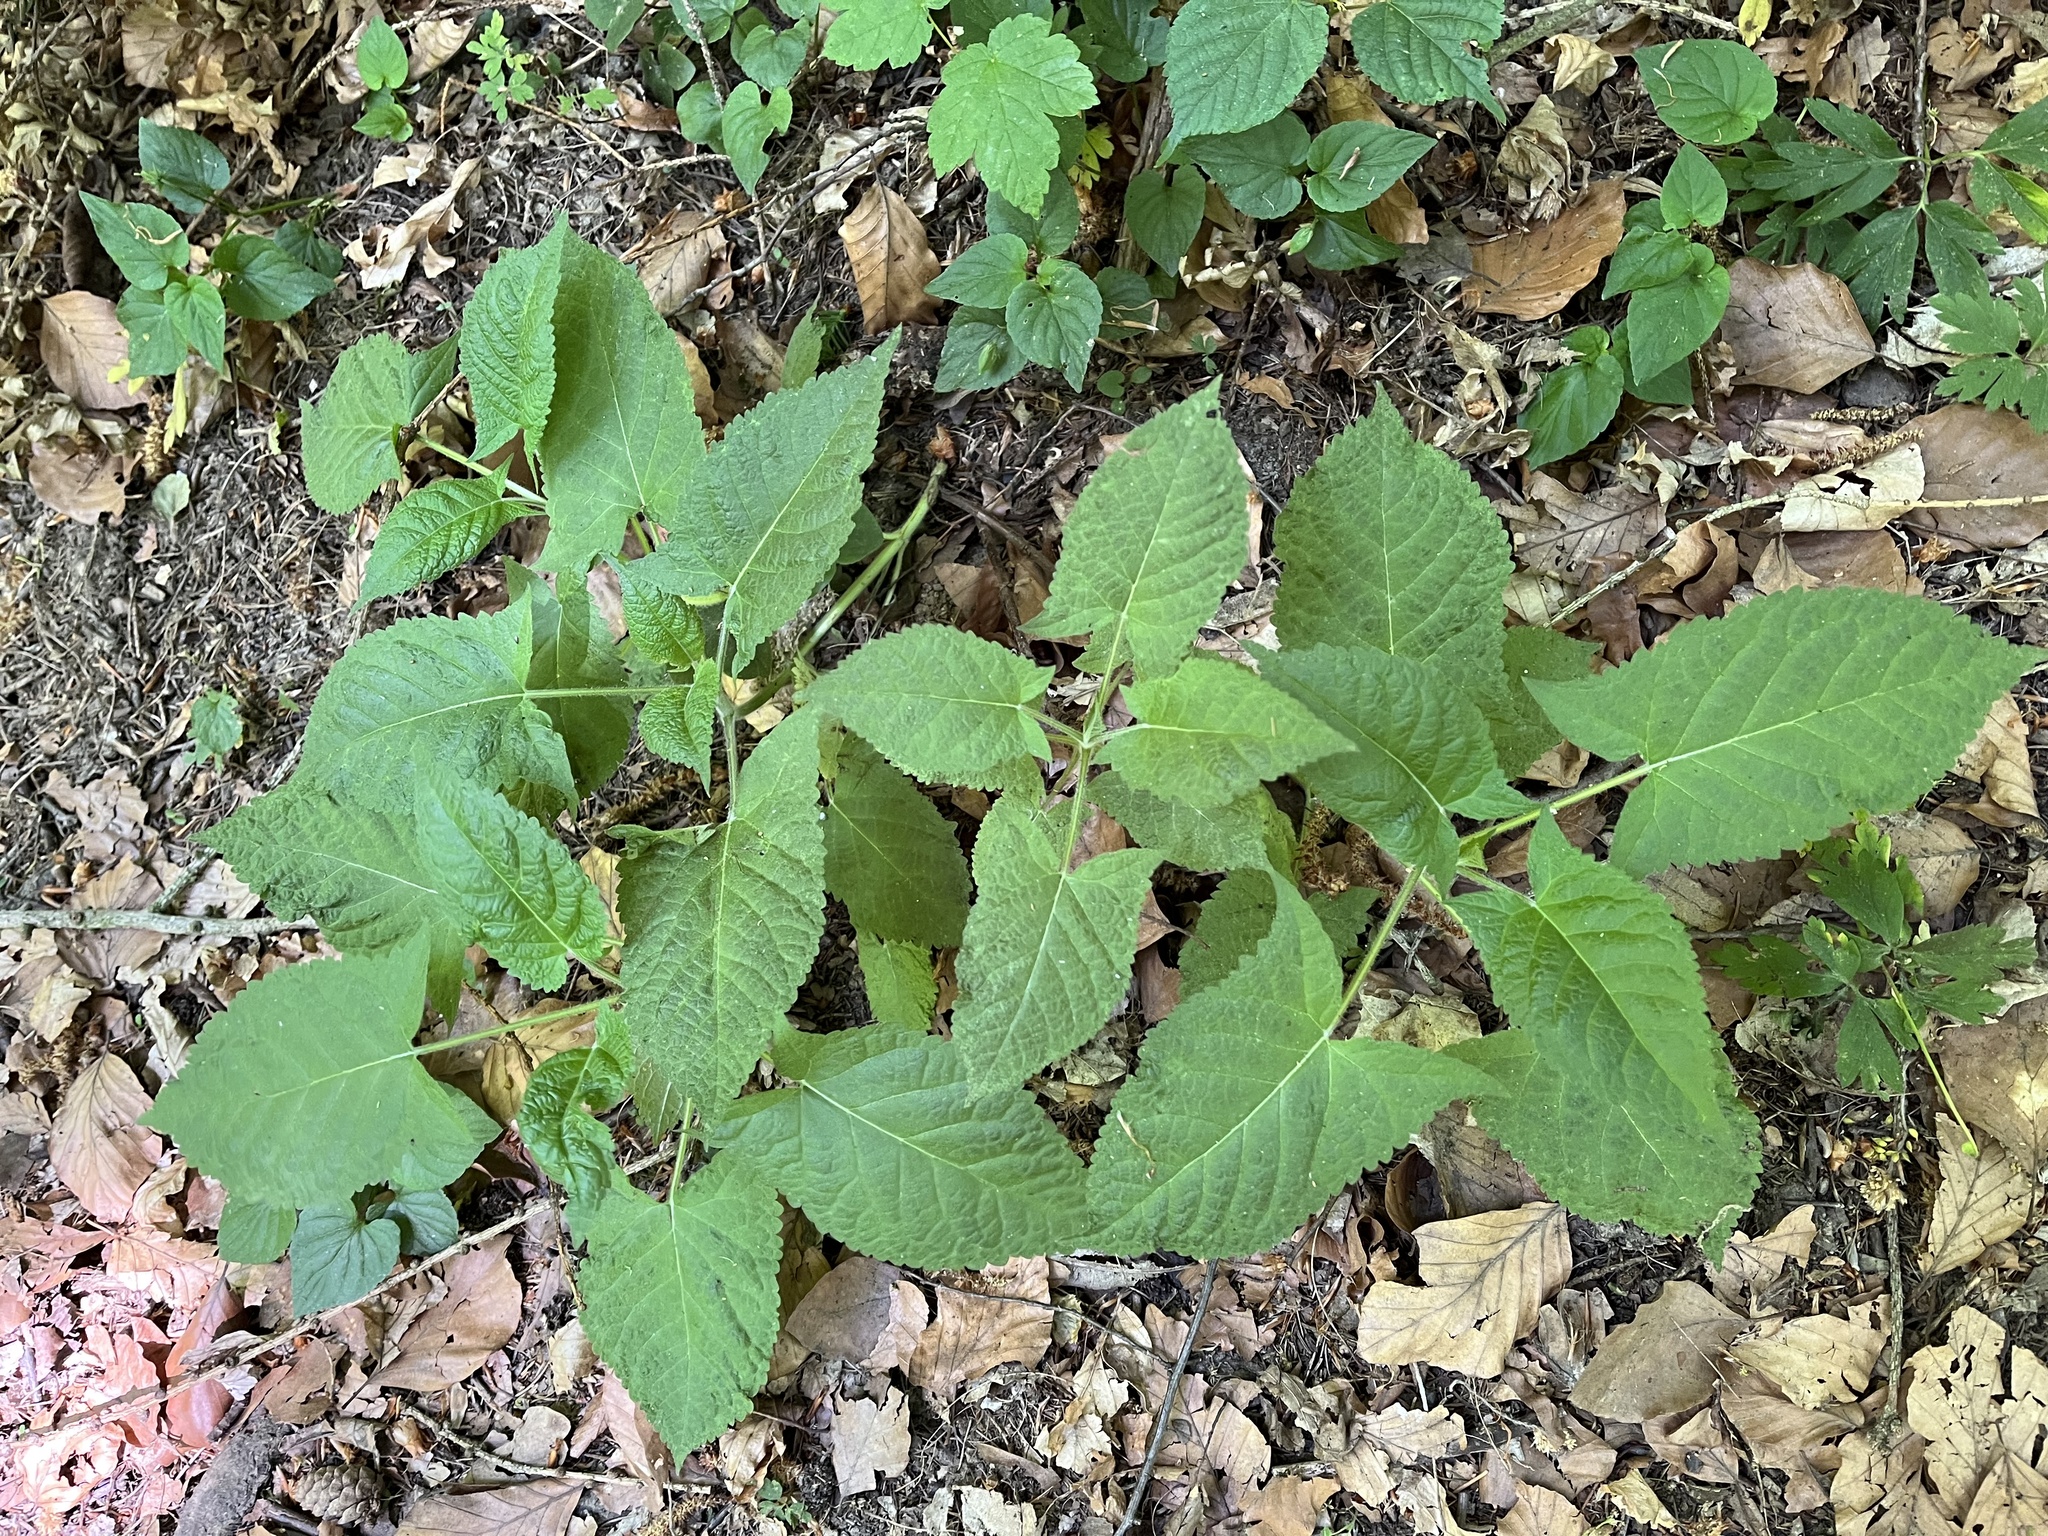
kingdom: Plantae
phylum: Tracheophyta
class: Magnoliopsida
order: Lamiales
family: Lamiaceae
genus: Salvia
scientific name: Salvia glutinosa
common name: Sticky clary
